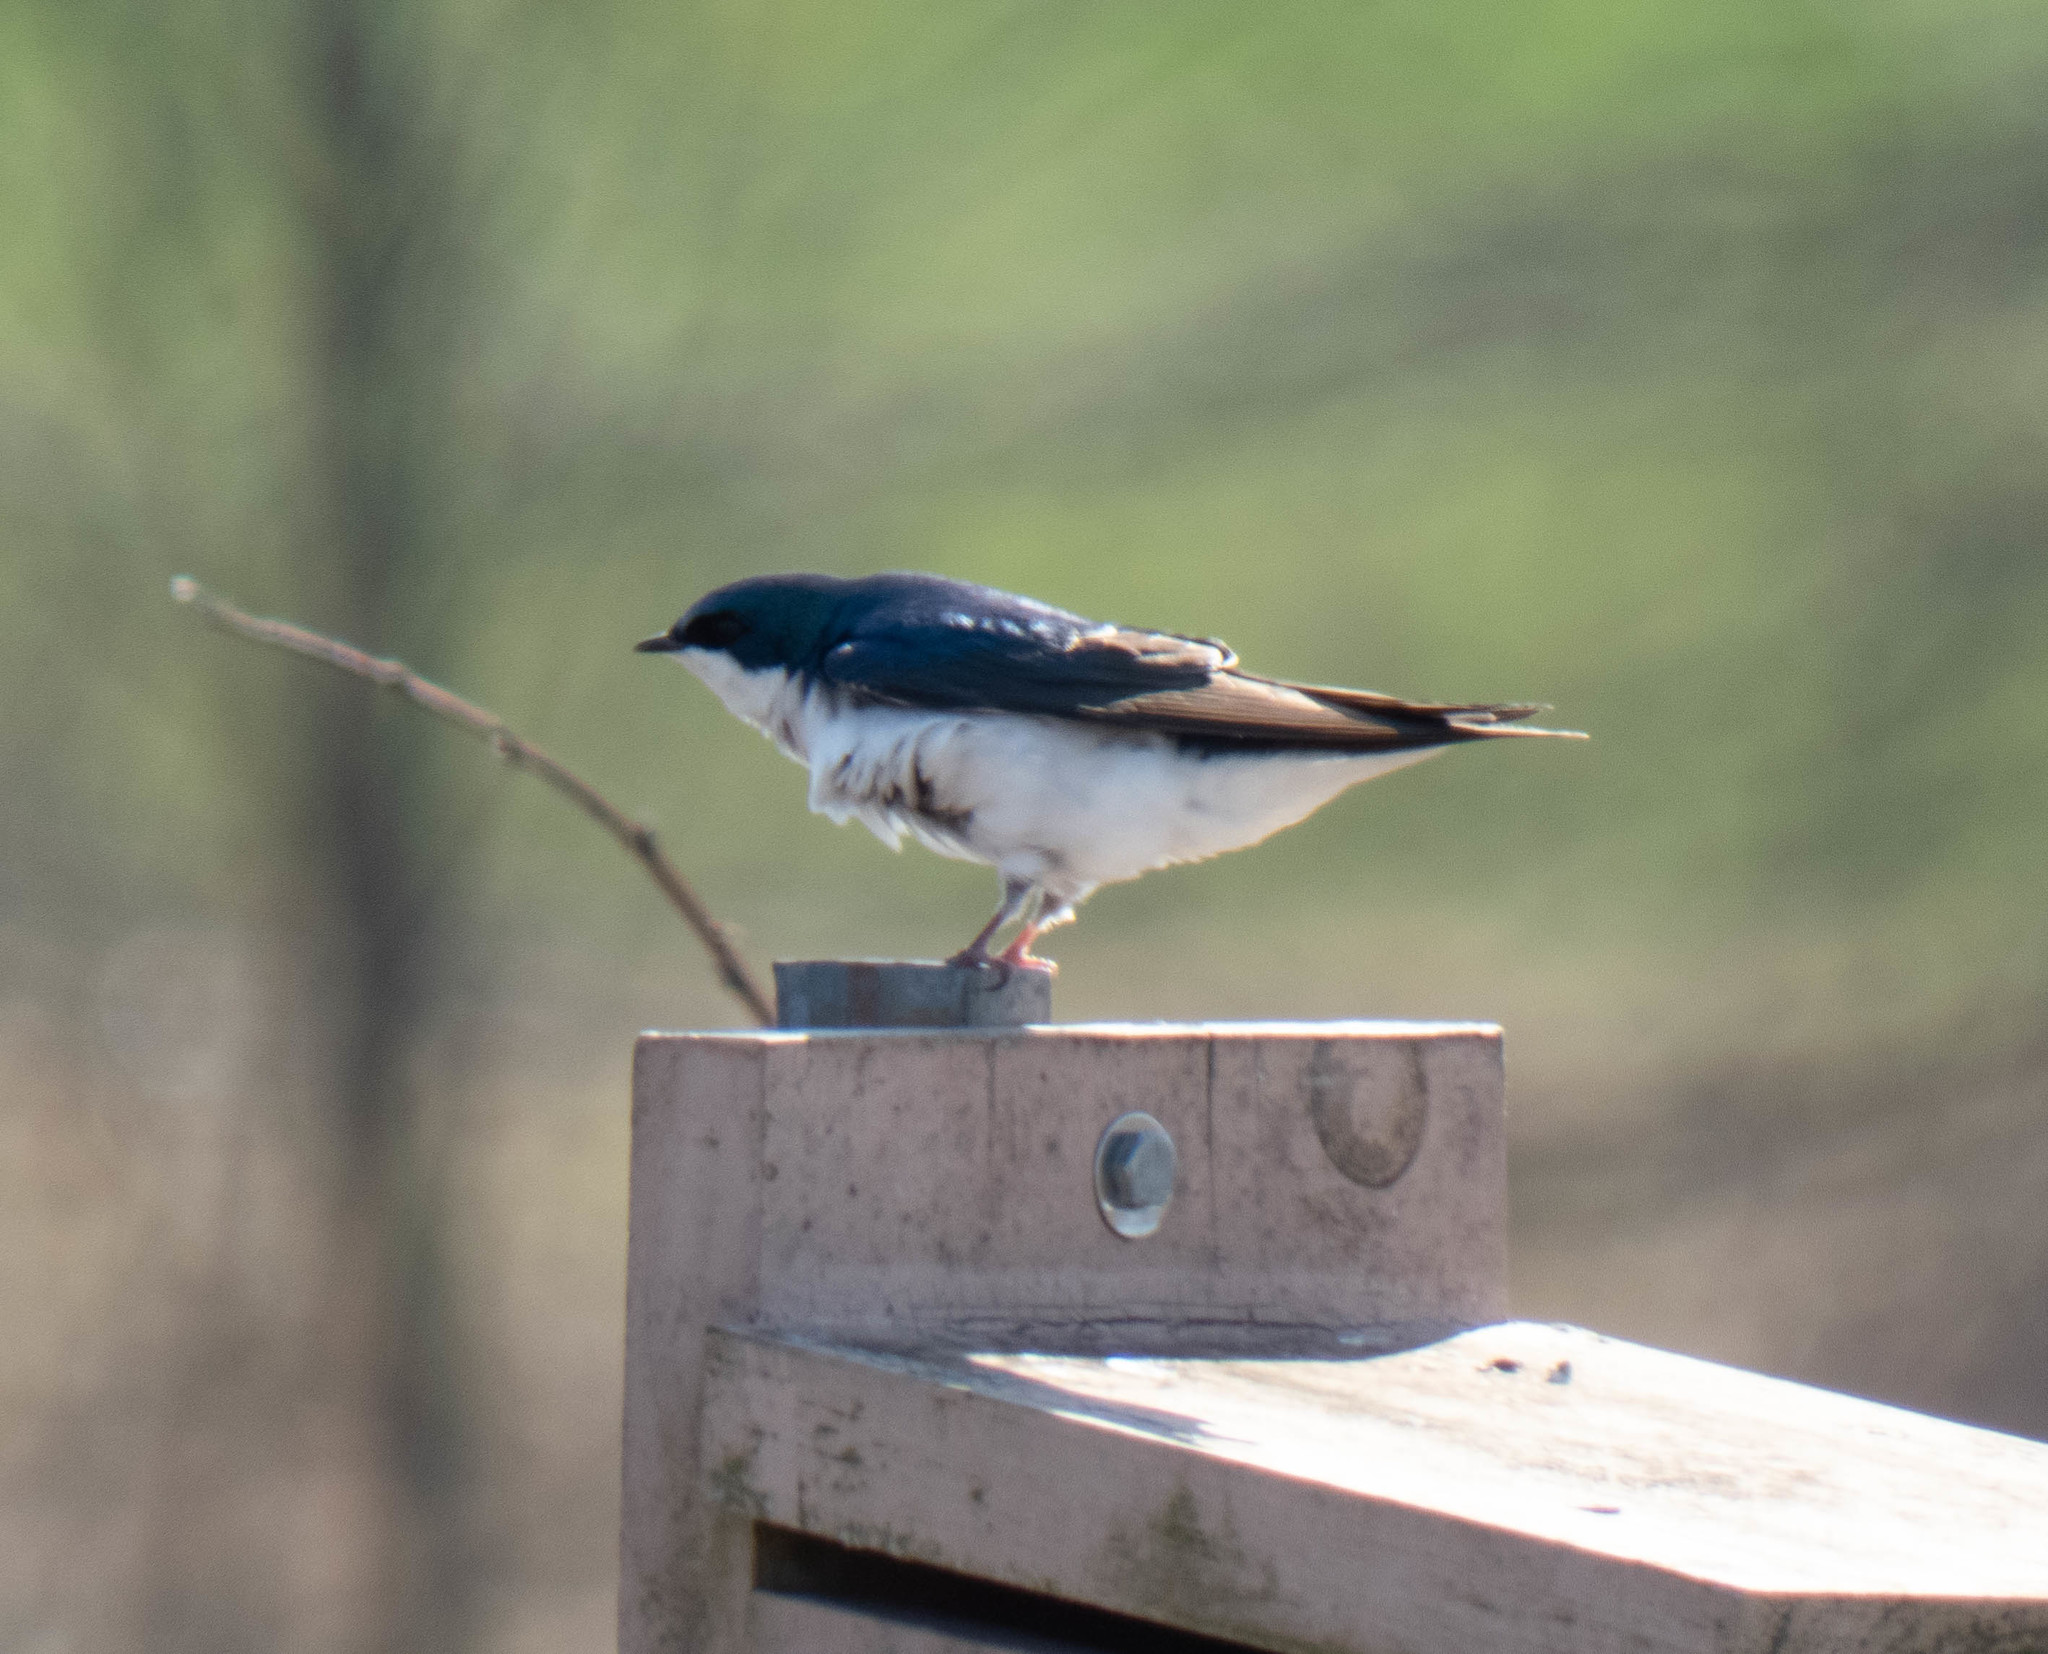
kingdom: Animalia
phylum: Chordata
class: Aves
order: Passeriformes
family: Hirundinidae
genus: Tachycineta
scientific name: Tachycineta bicolor
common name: Tree swallow
